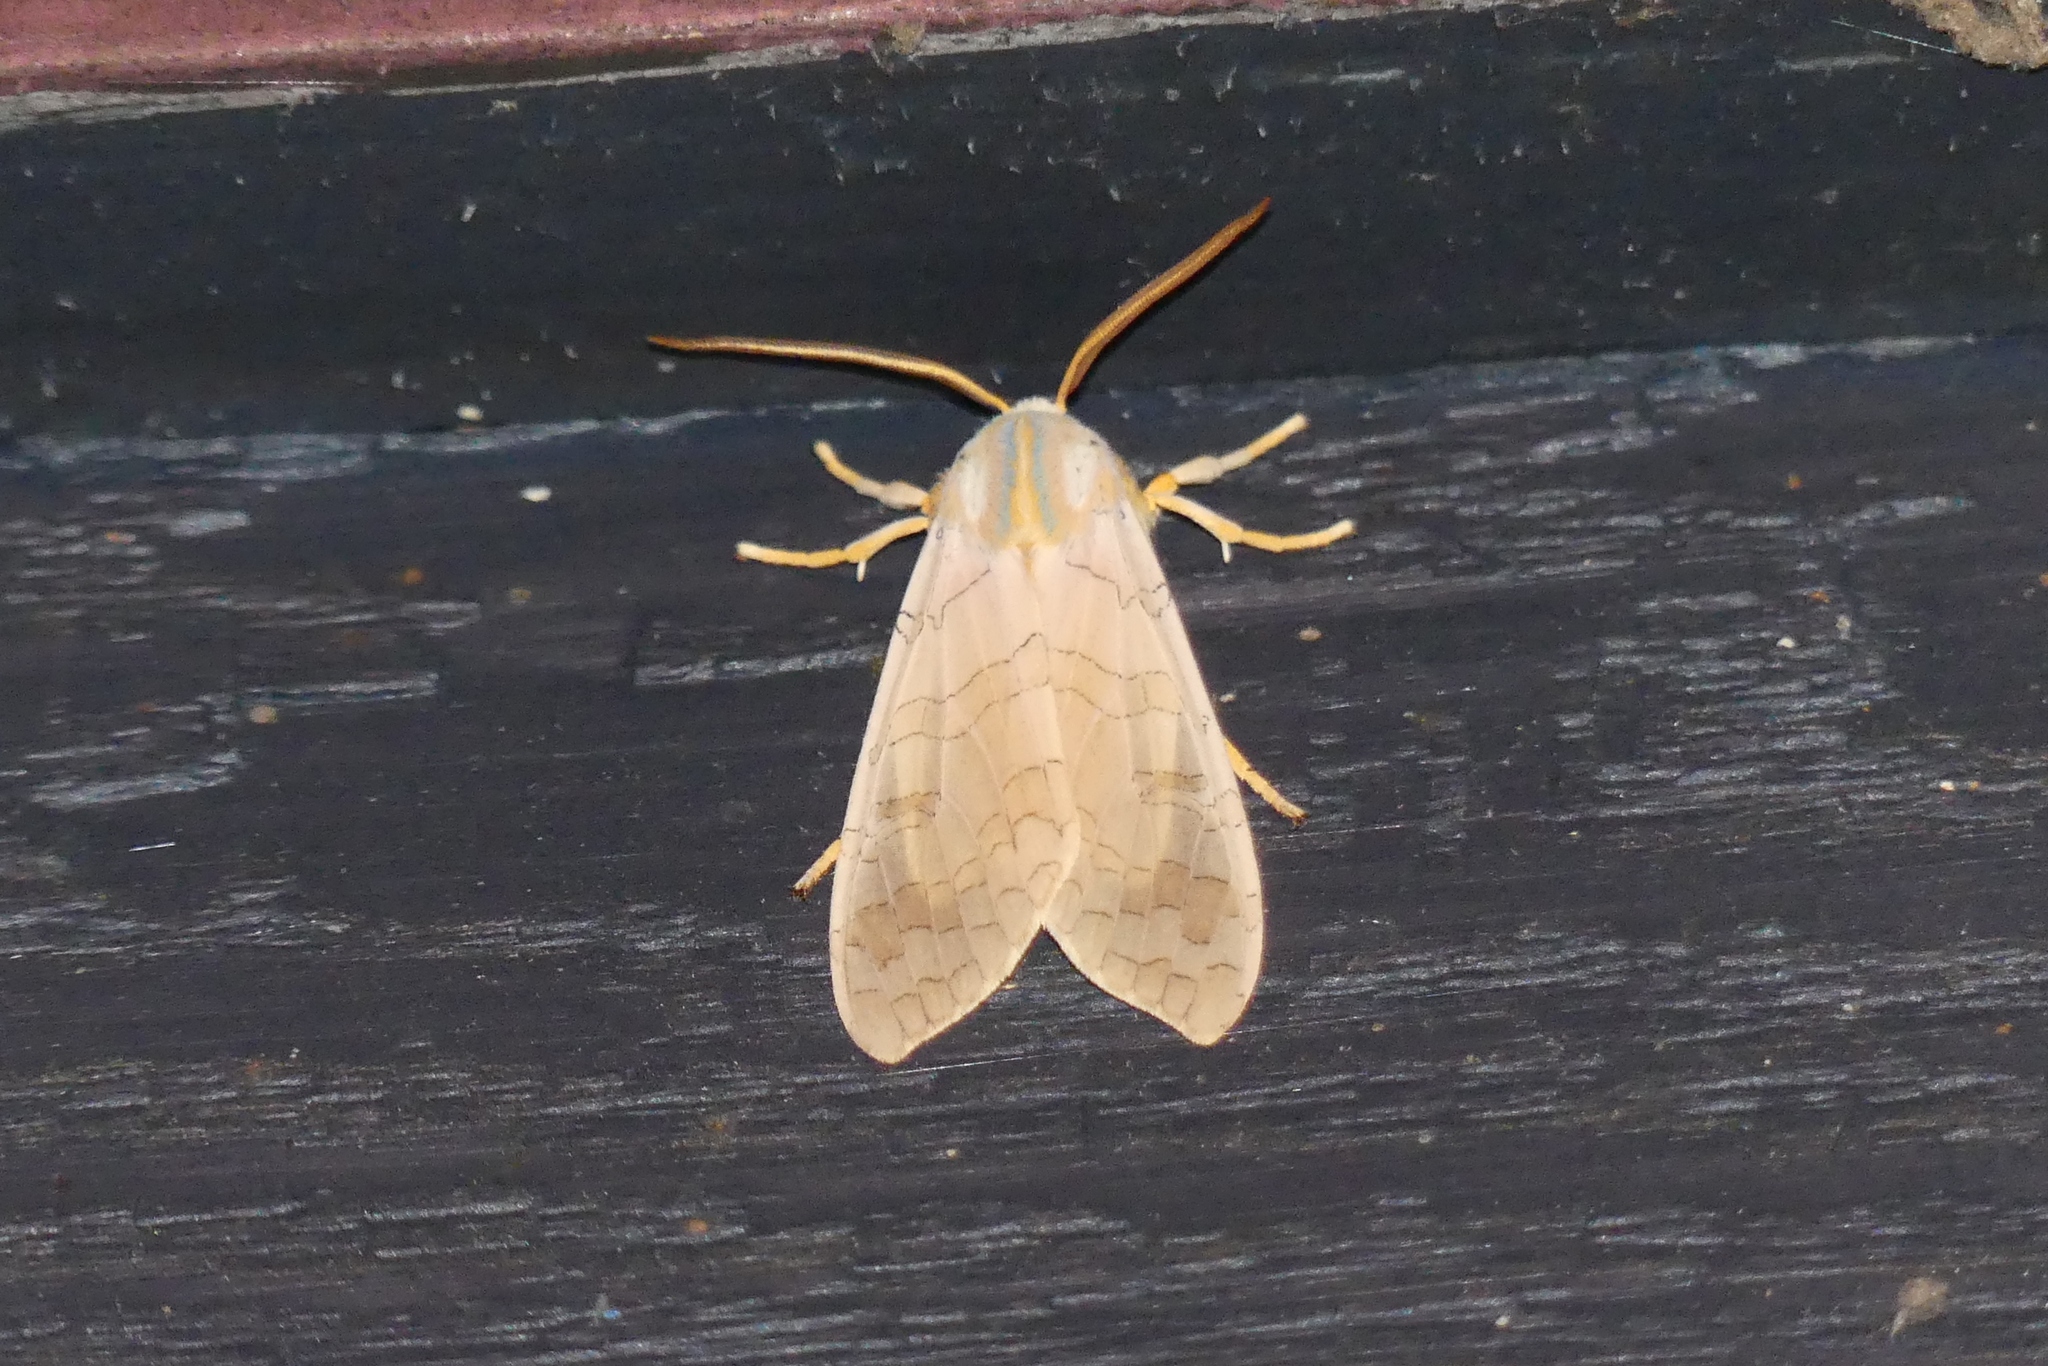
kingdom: Animalia
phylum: Arthropoda
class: Insecta
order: Lepidoptera
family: Erebidae
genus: Halysidota
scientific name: Halysidota
